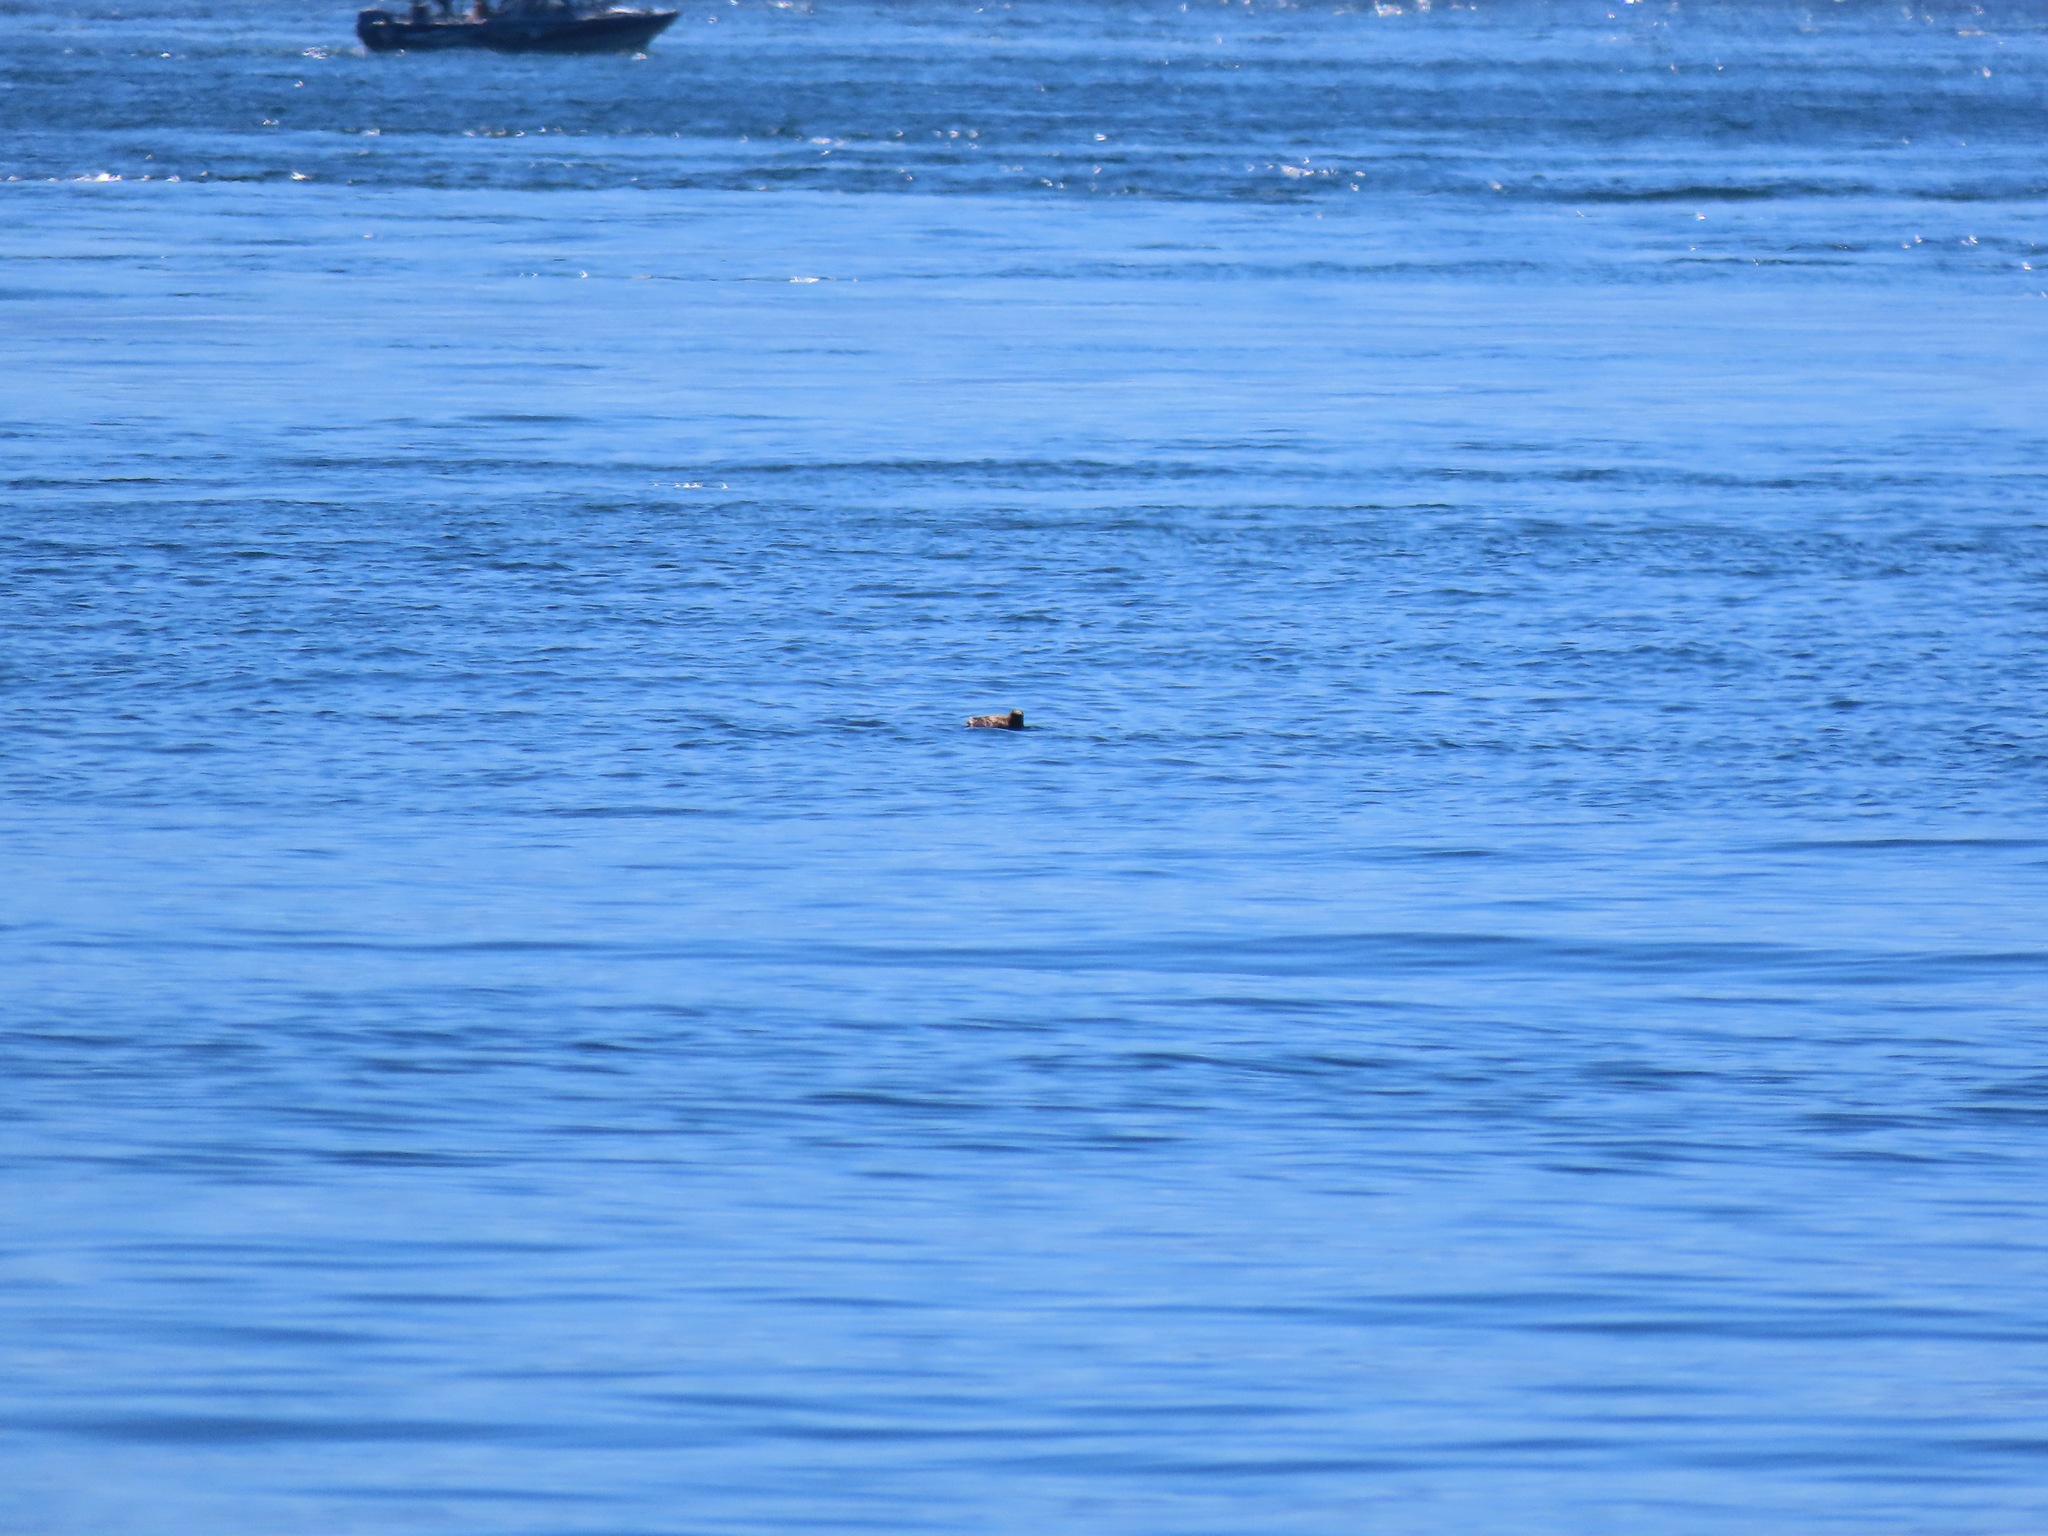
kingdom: Animalia
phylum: Chordata
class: Aves
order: Charadriiformes
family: Alcidae
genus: Brachyramphus
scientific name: Brachyramphus marmoratus
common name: Marbled murrelet
